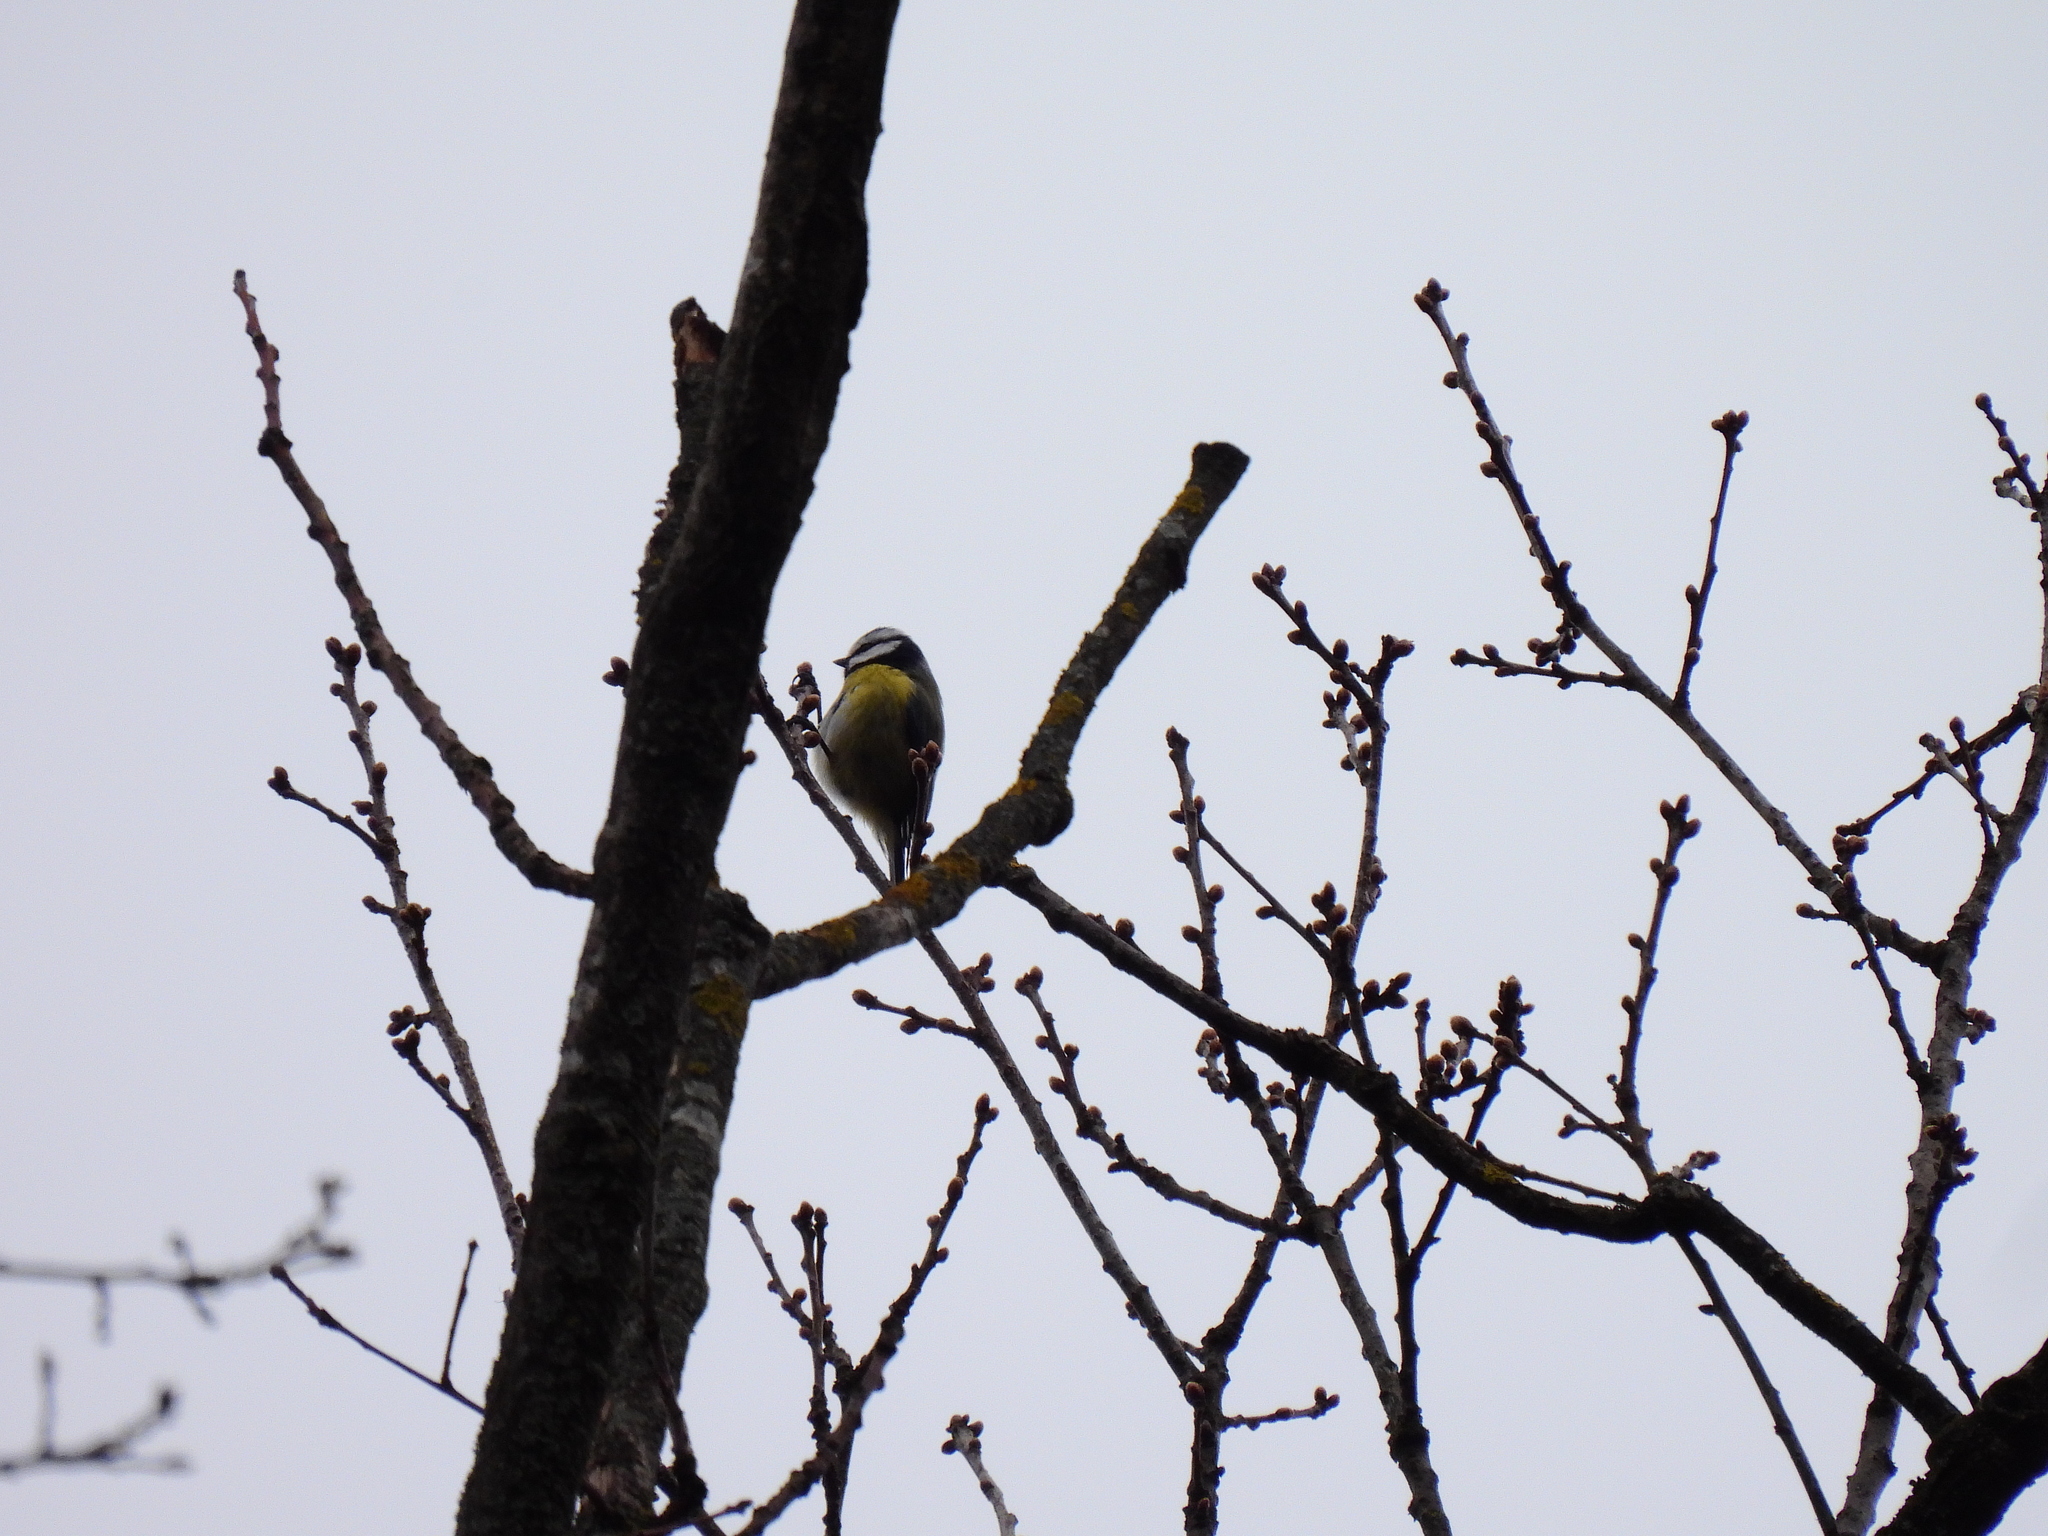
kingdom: Animalia
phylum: Chordata
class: Aves
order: Passeriformes
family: Paridae
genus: Cyanistes
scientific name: Cyanistes caeruleus
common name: Eurasian blue tit
